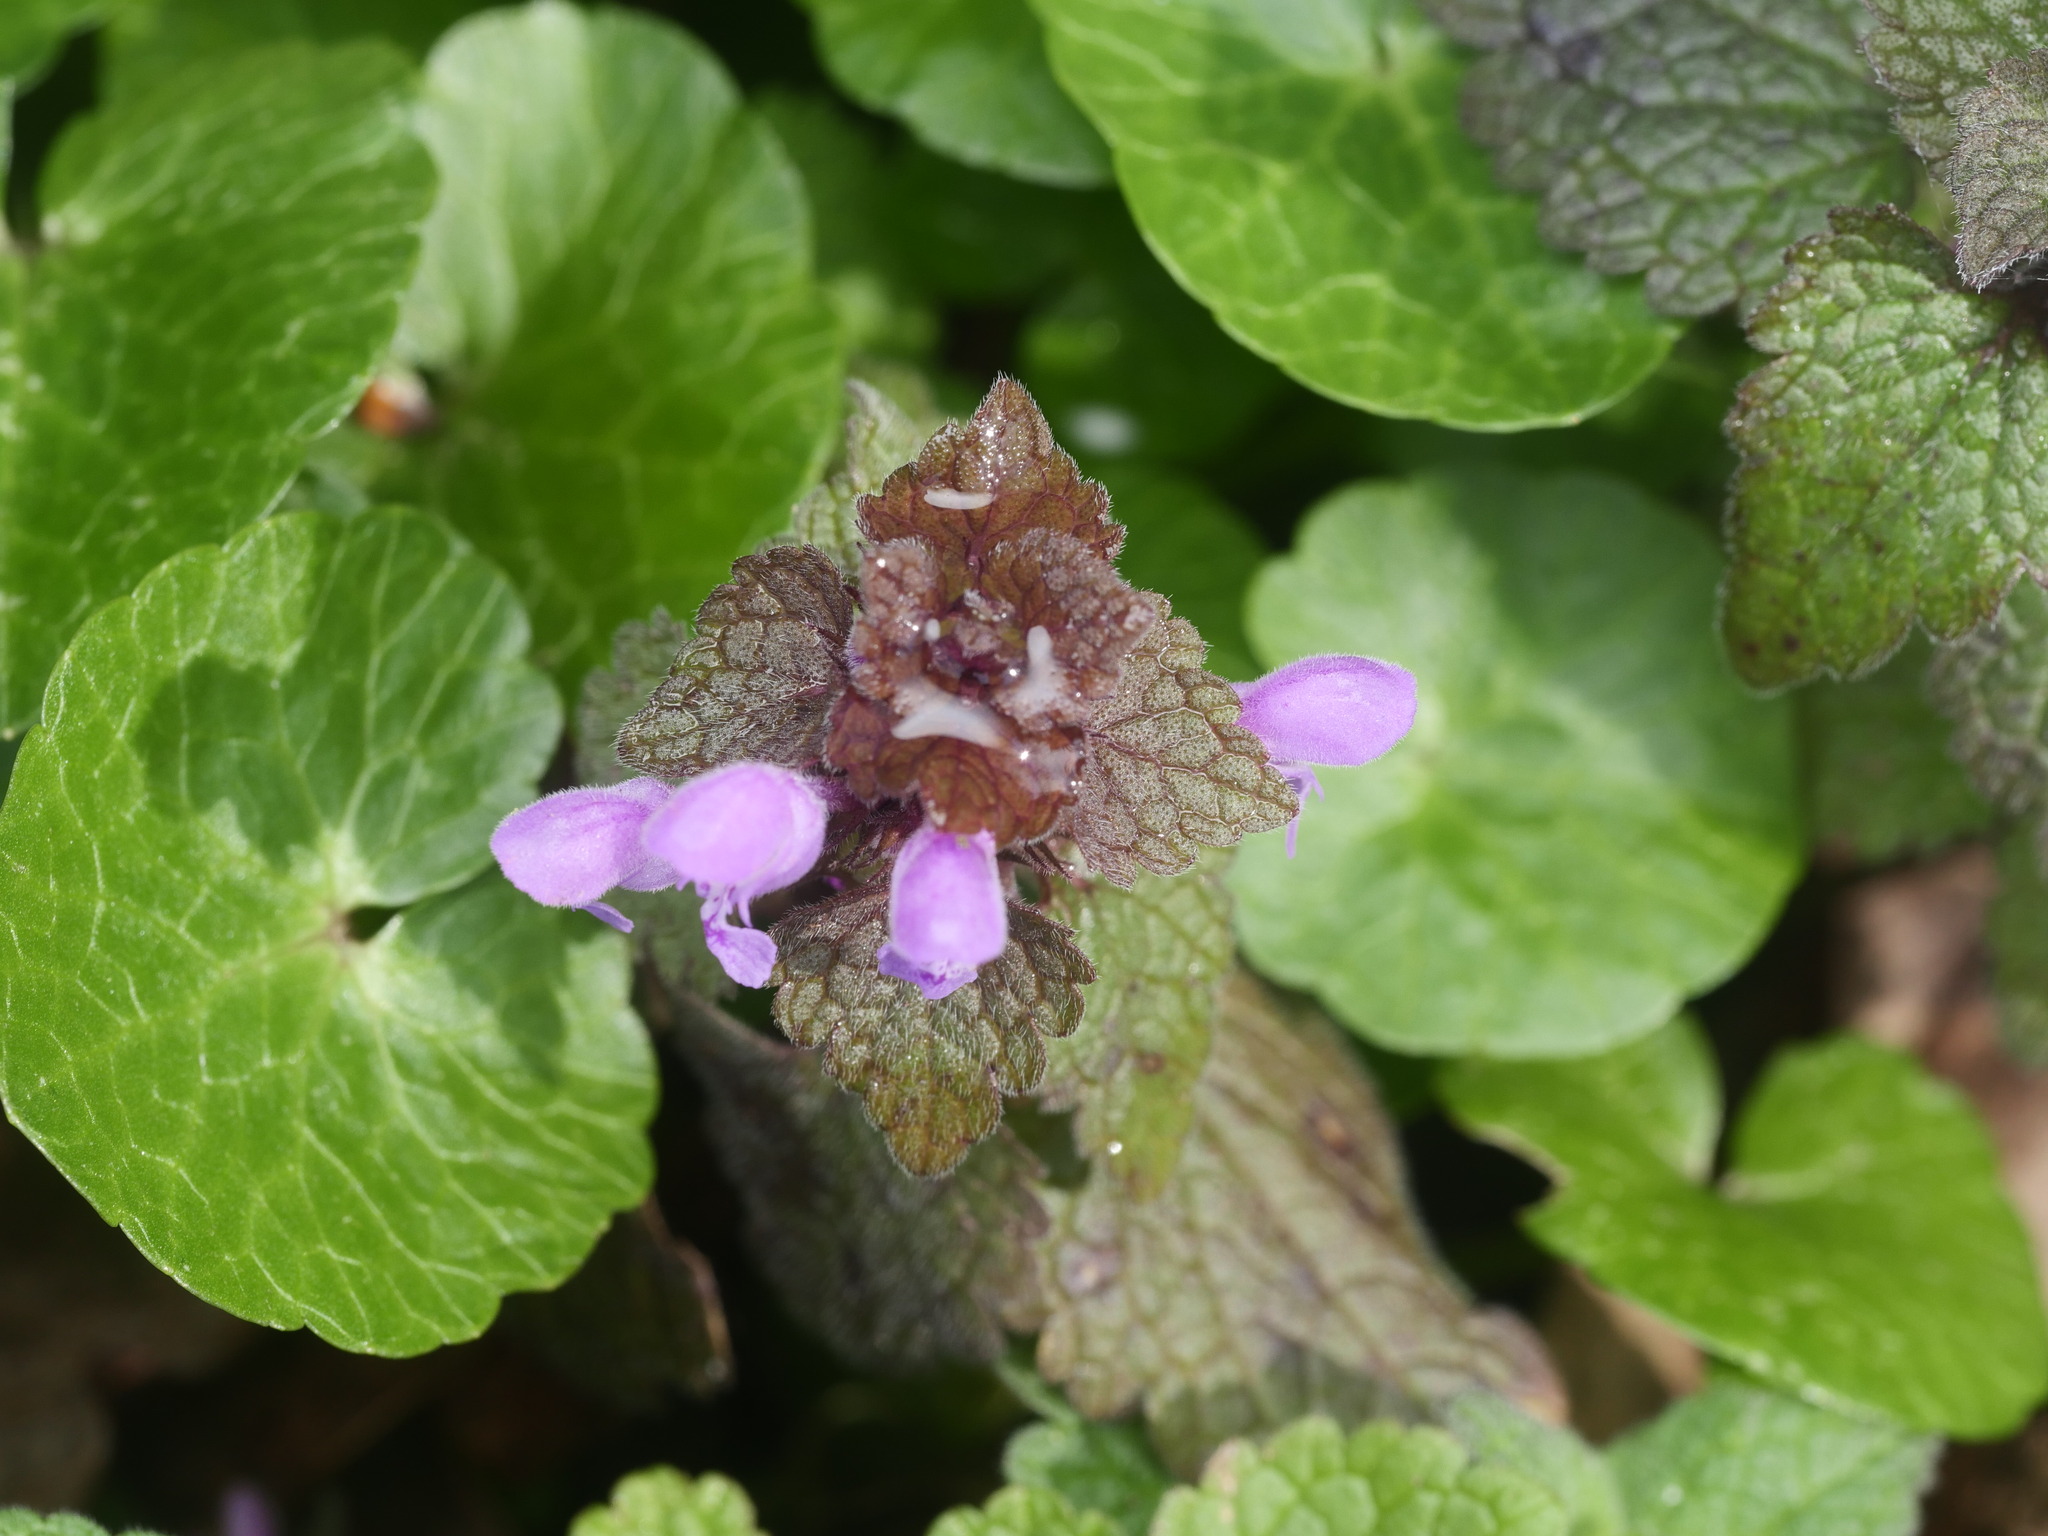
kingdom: Plantae
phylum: Tracheophyta
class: Magnoliopsida
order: Lamiales
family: Lamiaceae
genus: Lamium
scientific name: Lamium purpureum
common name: Red dead-nettle
